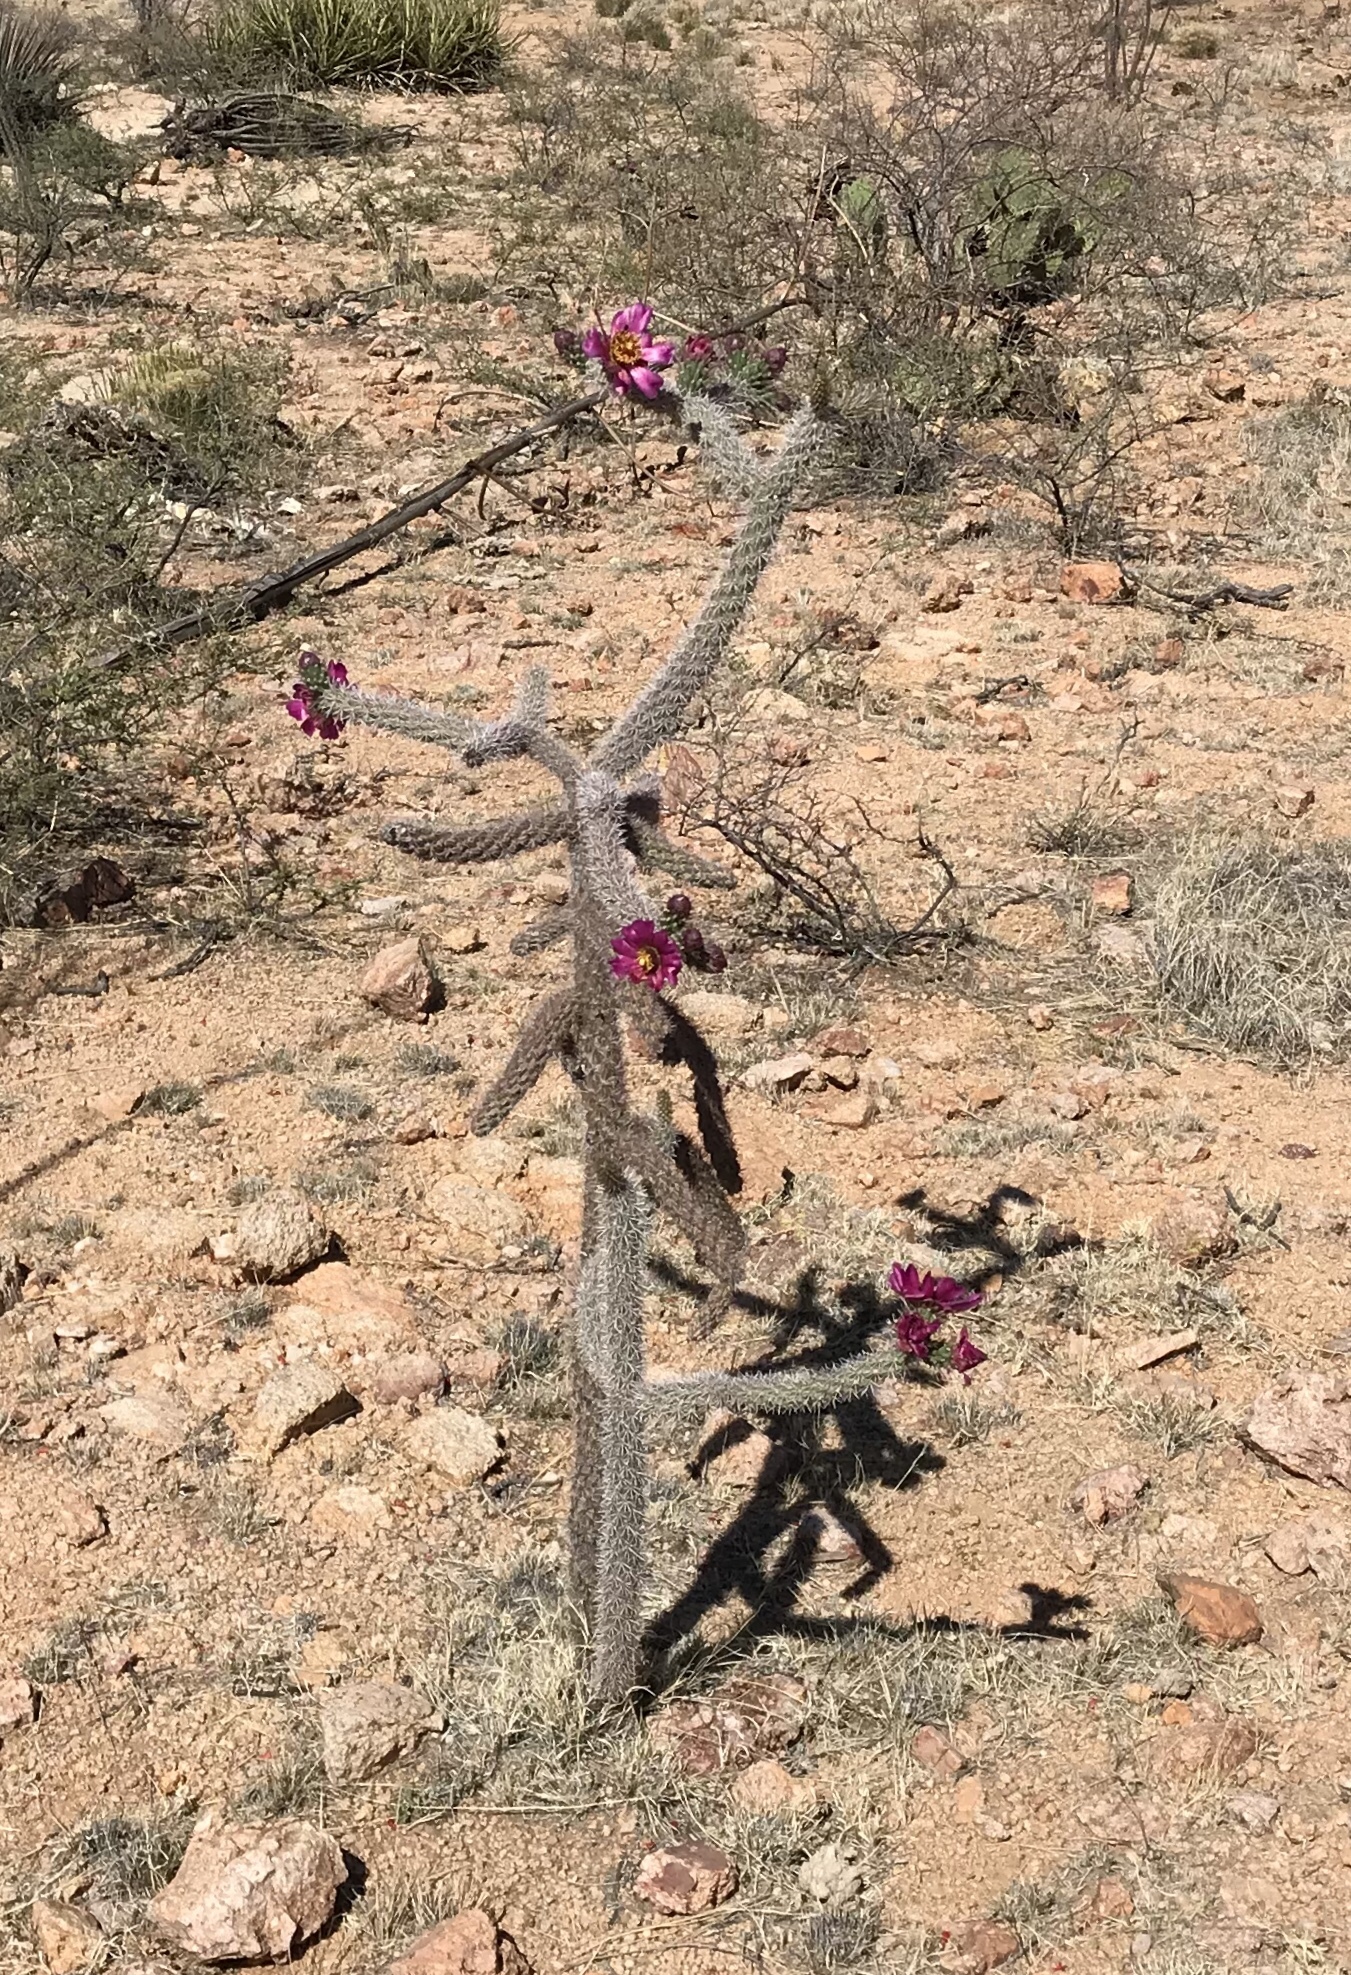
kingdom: Plantae
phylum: Tracheophyta
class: Magnoliopsida
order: Caryophyllales
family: Cactaceae
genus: Cylindropuntia
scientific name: Cylindropuntia imbricata
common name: Candelabrum cactus
